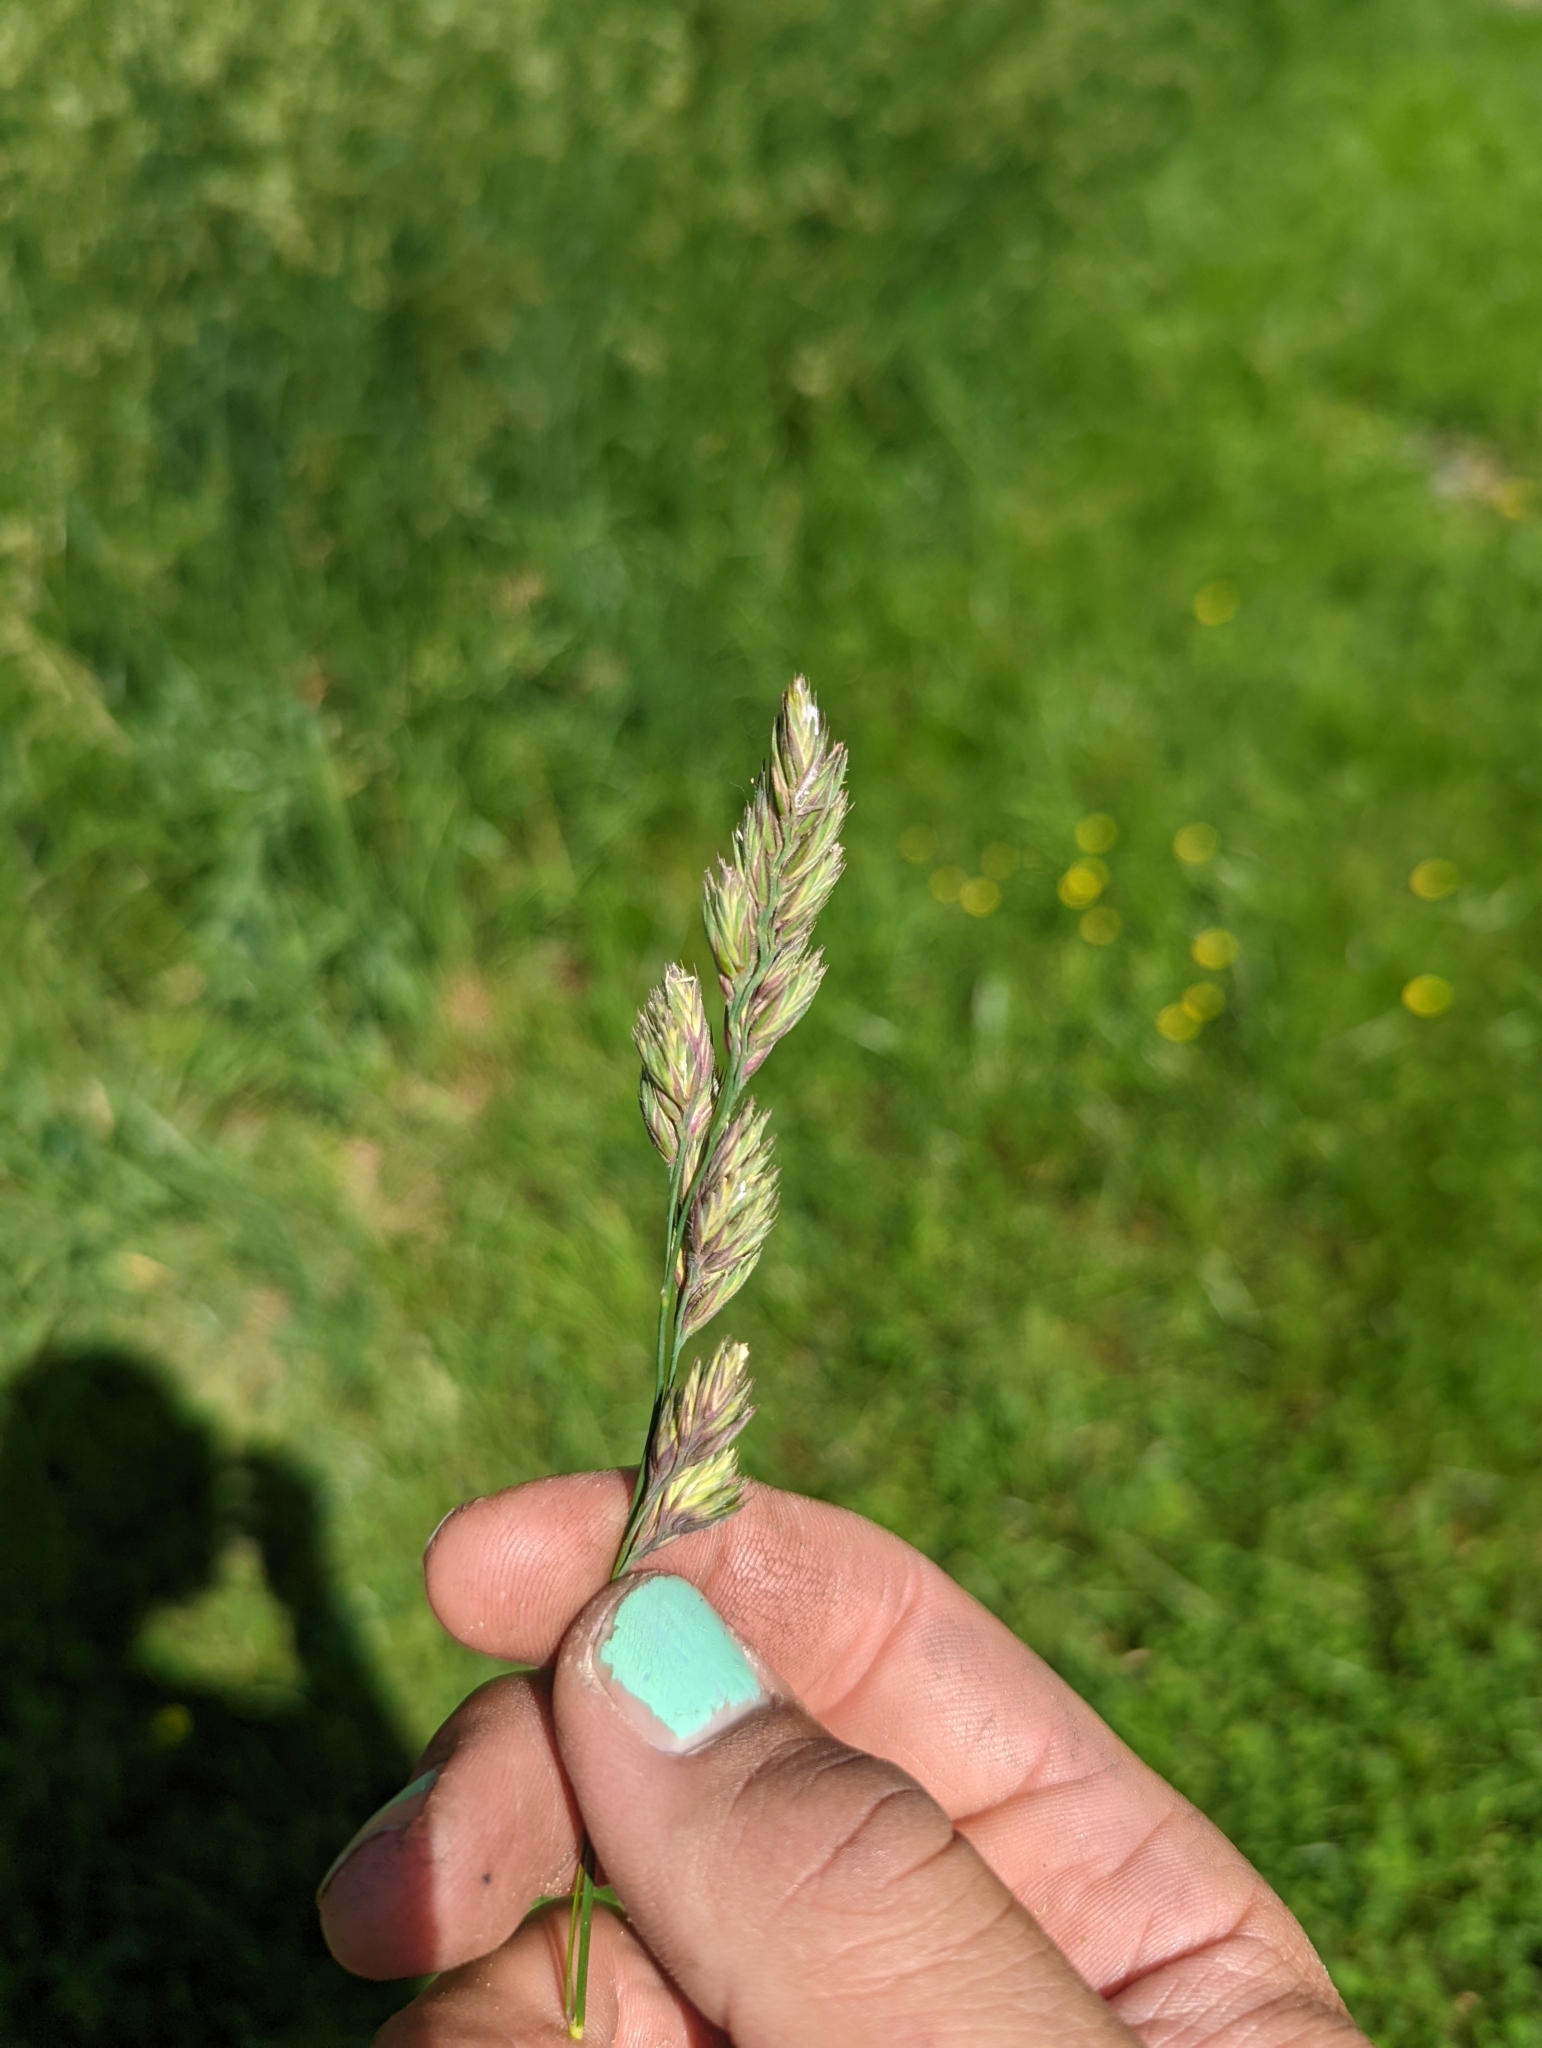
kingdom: Plantae
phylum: Tracheophyta
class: Liliopsida
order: Poales
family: Poaceae
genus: Dactylis
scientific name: Dactylis glomerata
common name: Orchardgrass
